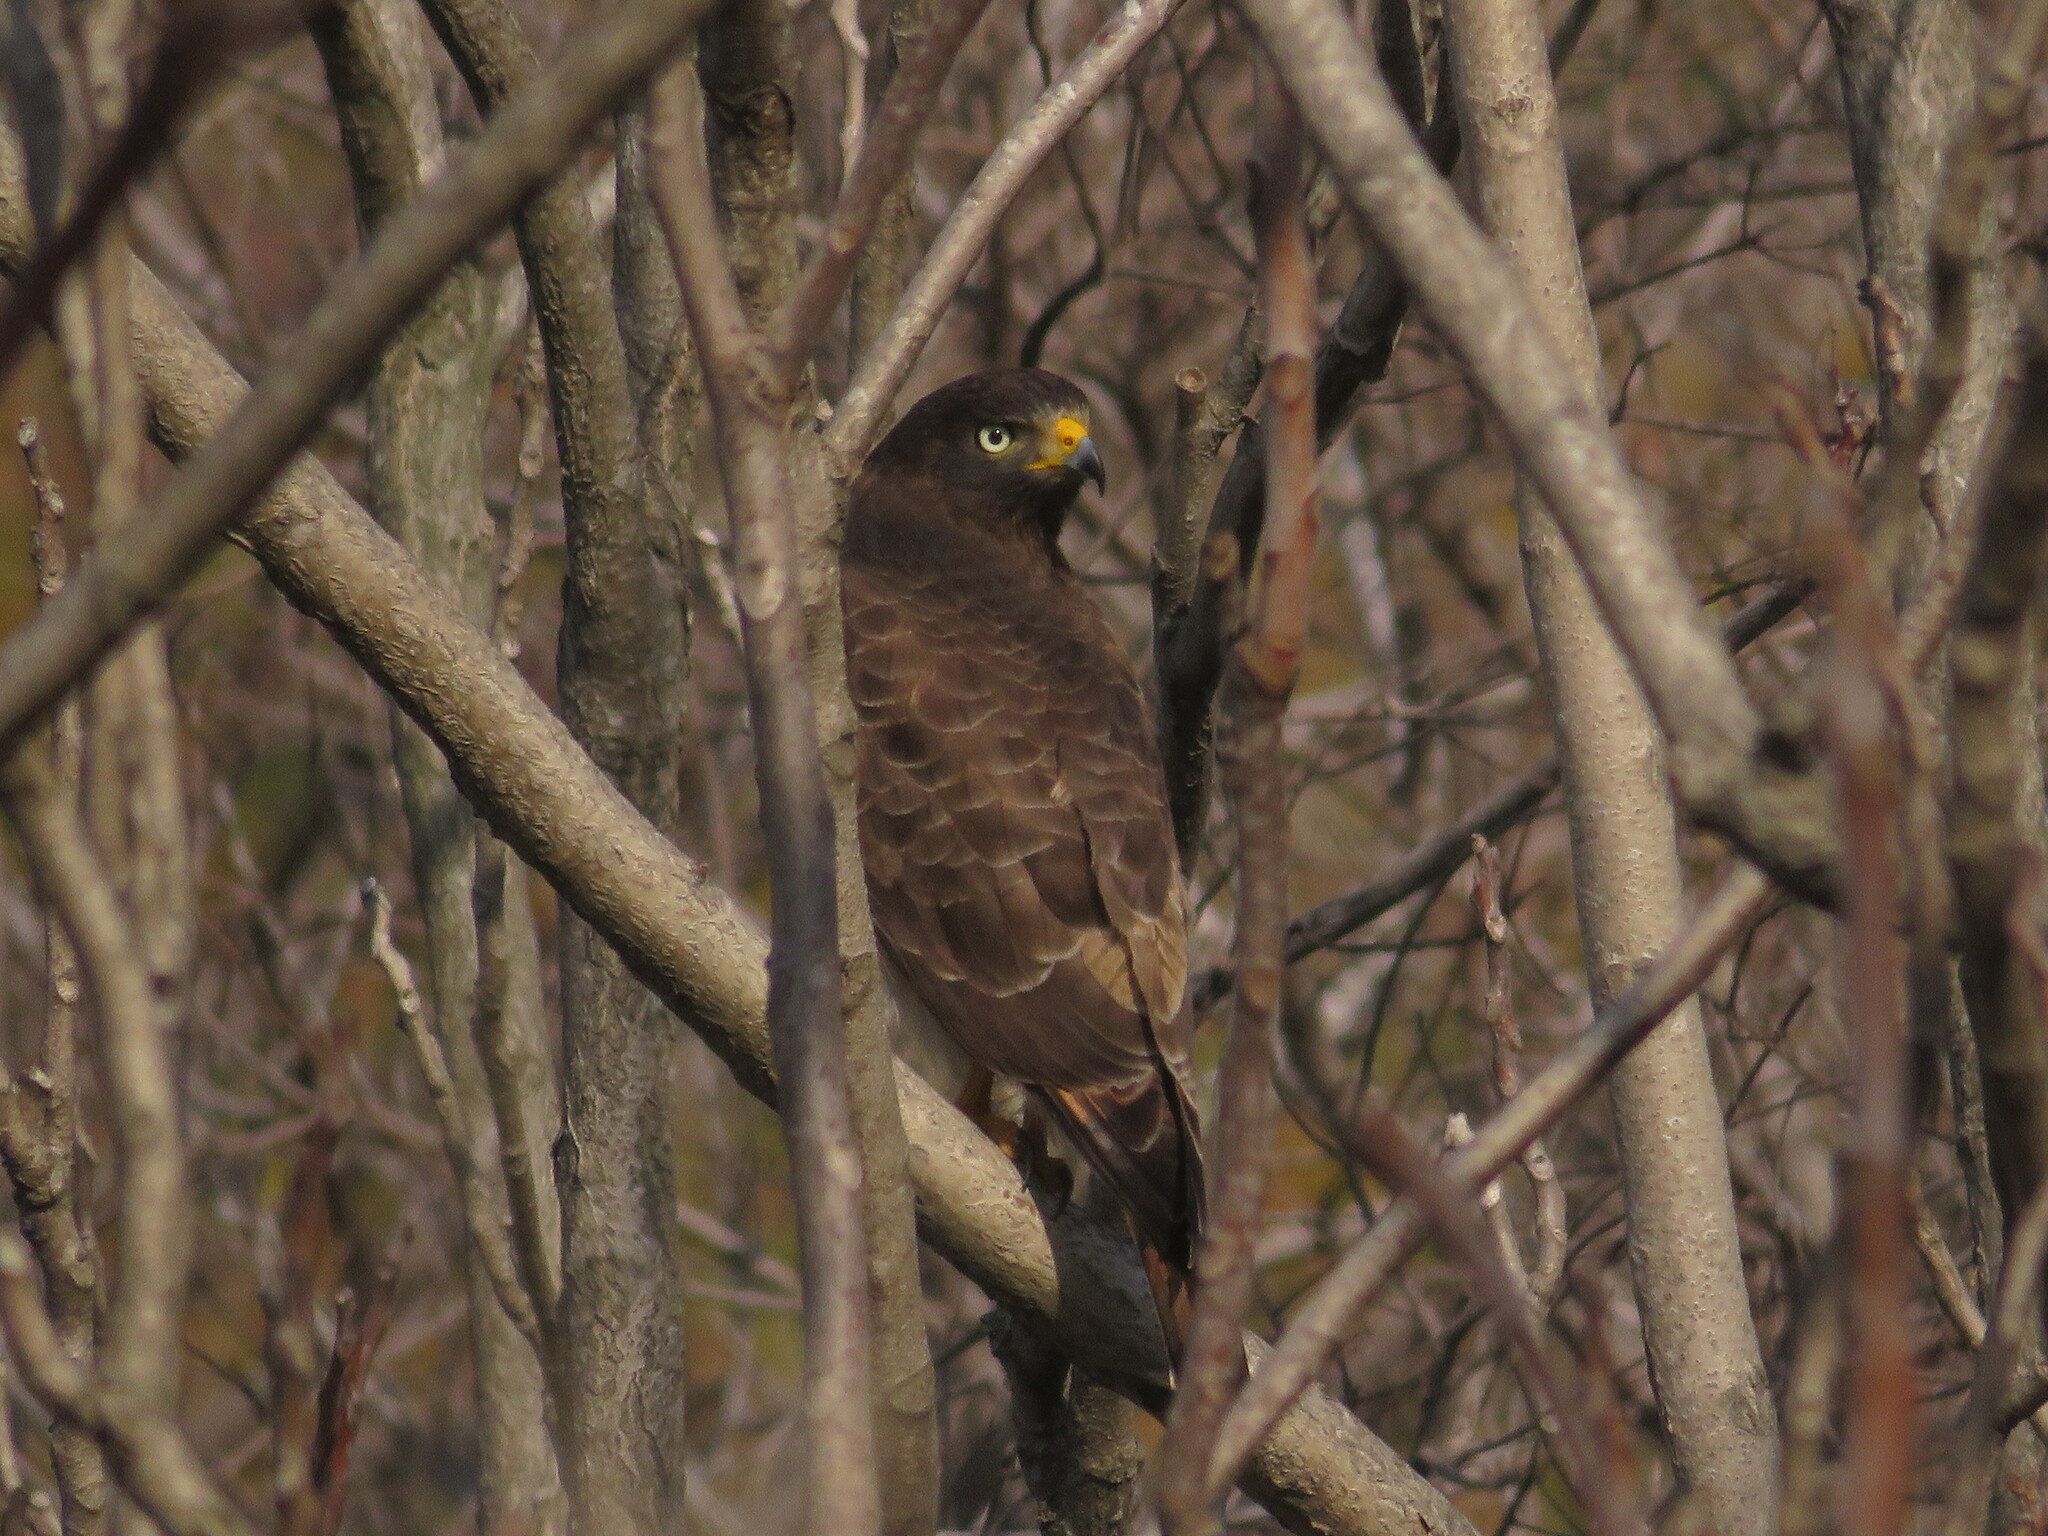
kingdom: Animalia
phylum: Chordata
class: Aves
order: Accipitriformes
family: Accipitridae
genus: Rupornis
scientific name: Rupornis magnirostris
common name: Roadside hawk
